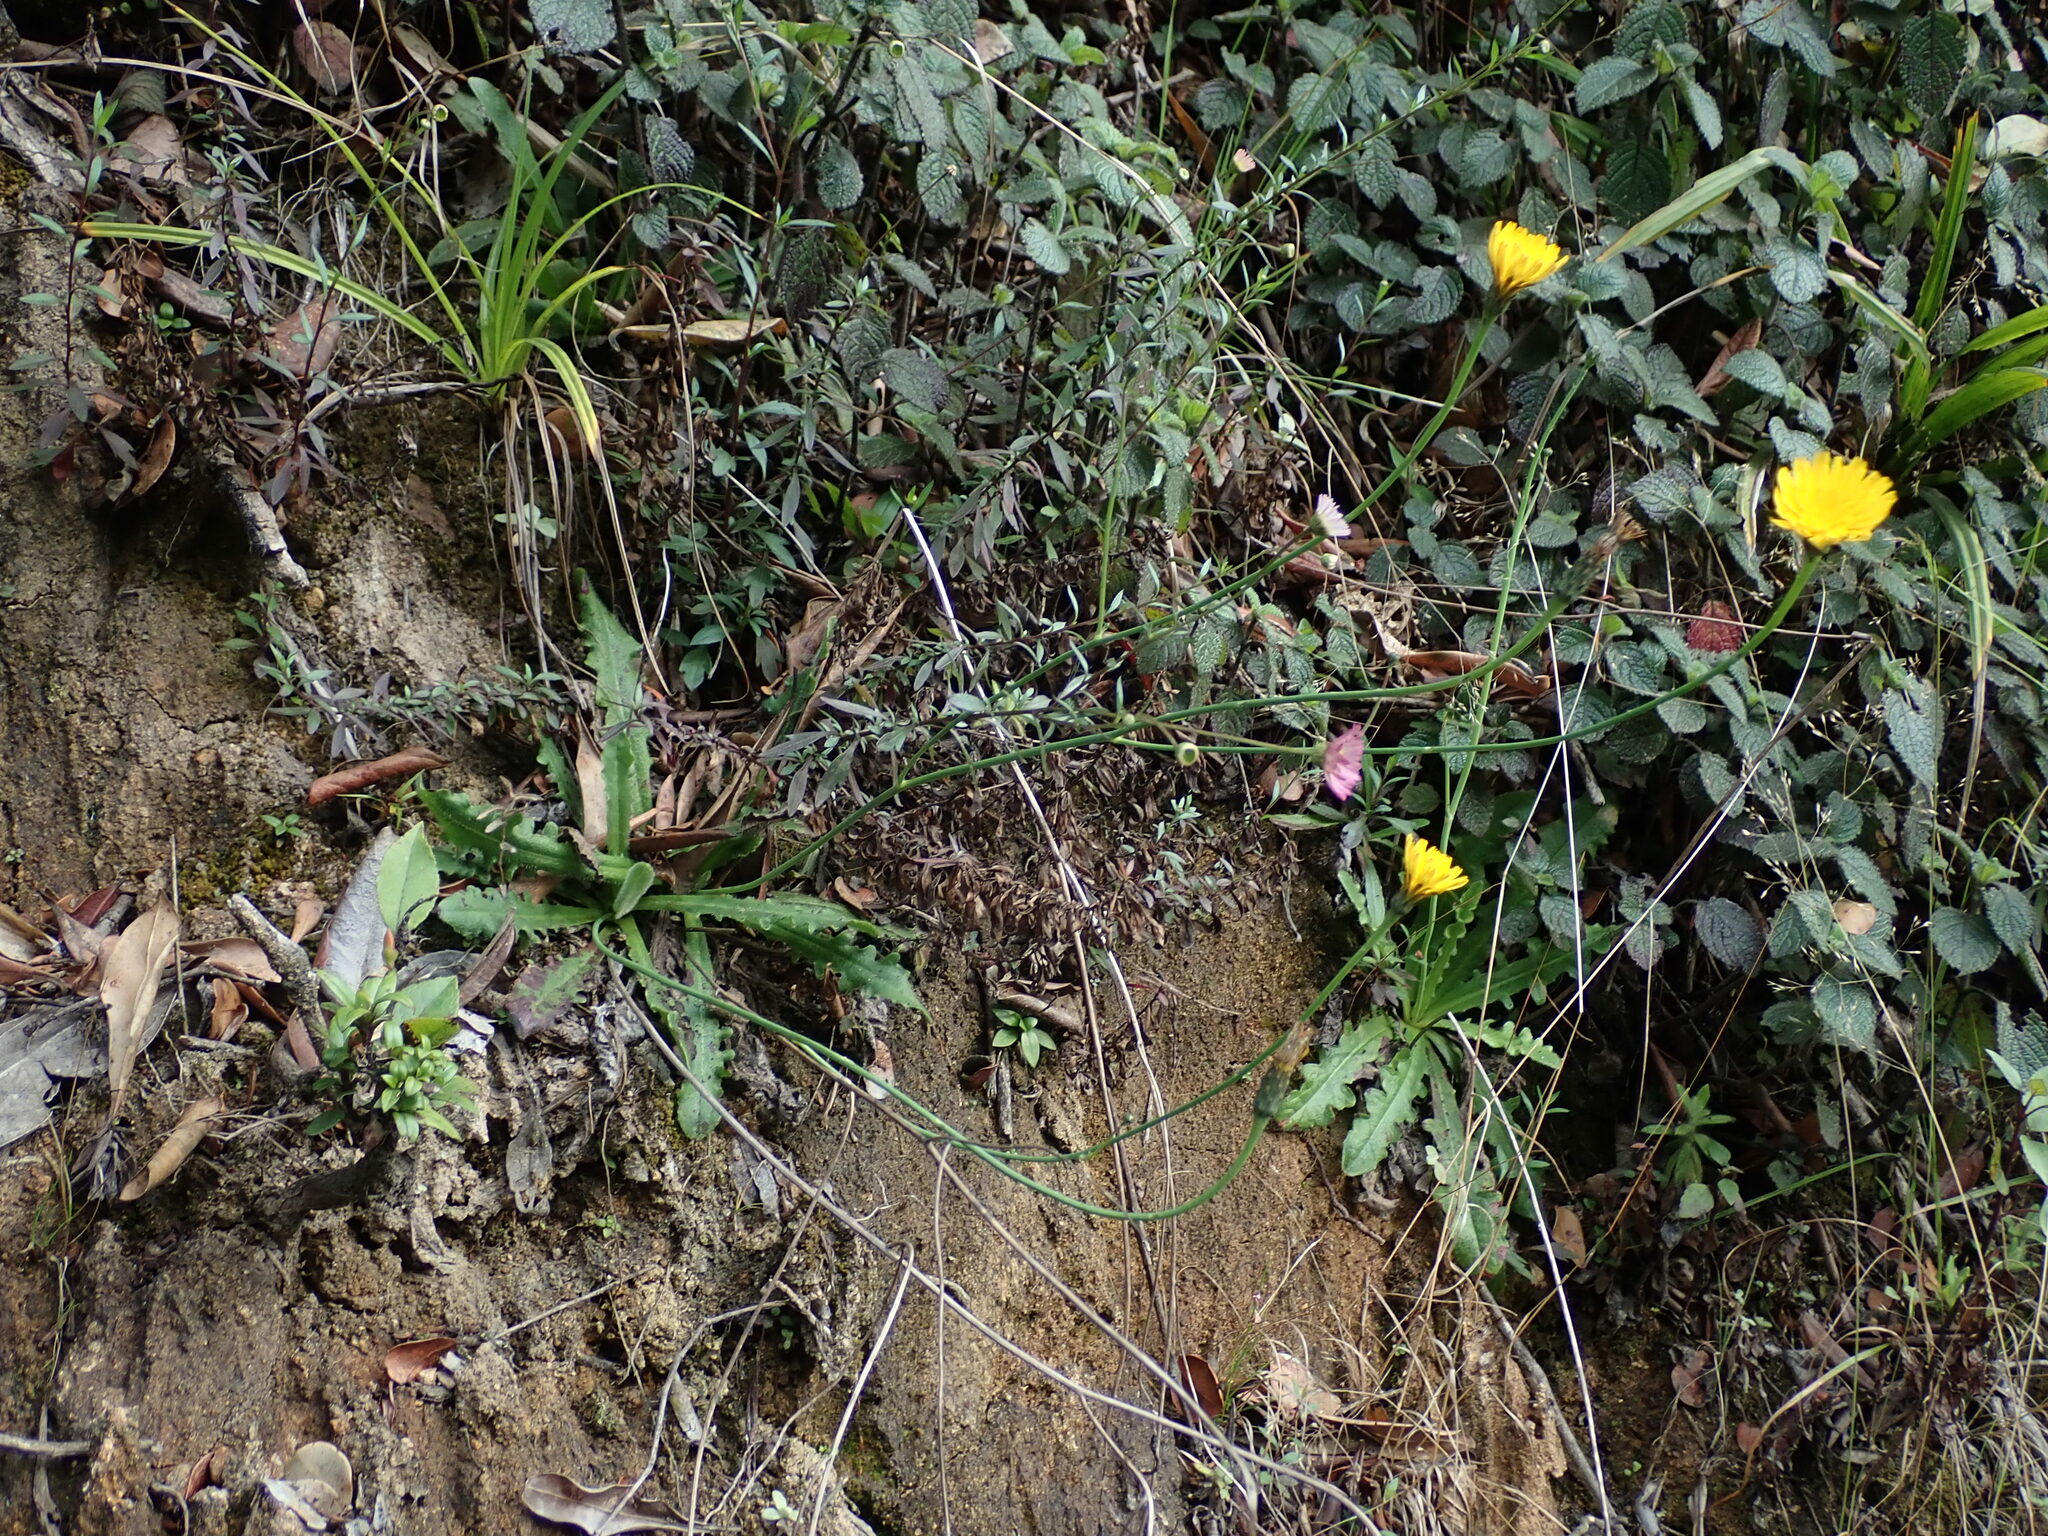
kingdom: Plantae
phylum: Tracheophyta
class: Magnoliopsida
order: Asterales
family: Asteraceae
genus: Hypochaeris
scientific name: Hypochaeris radicata
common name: Flatweed
